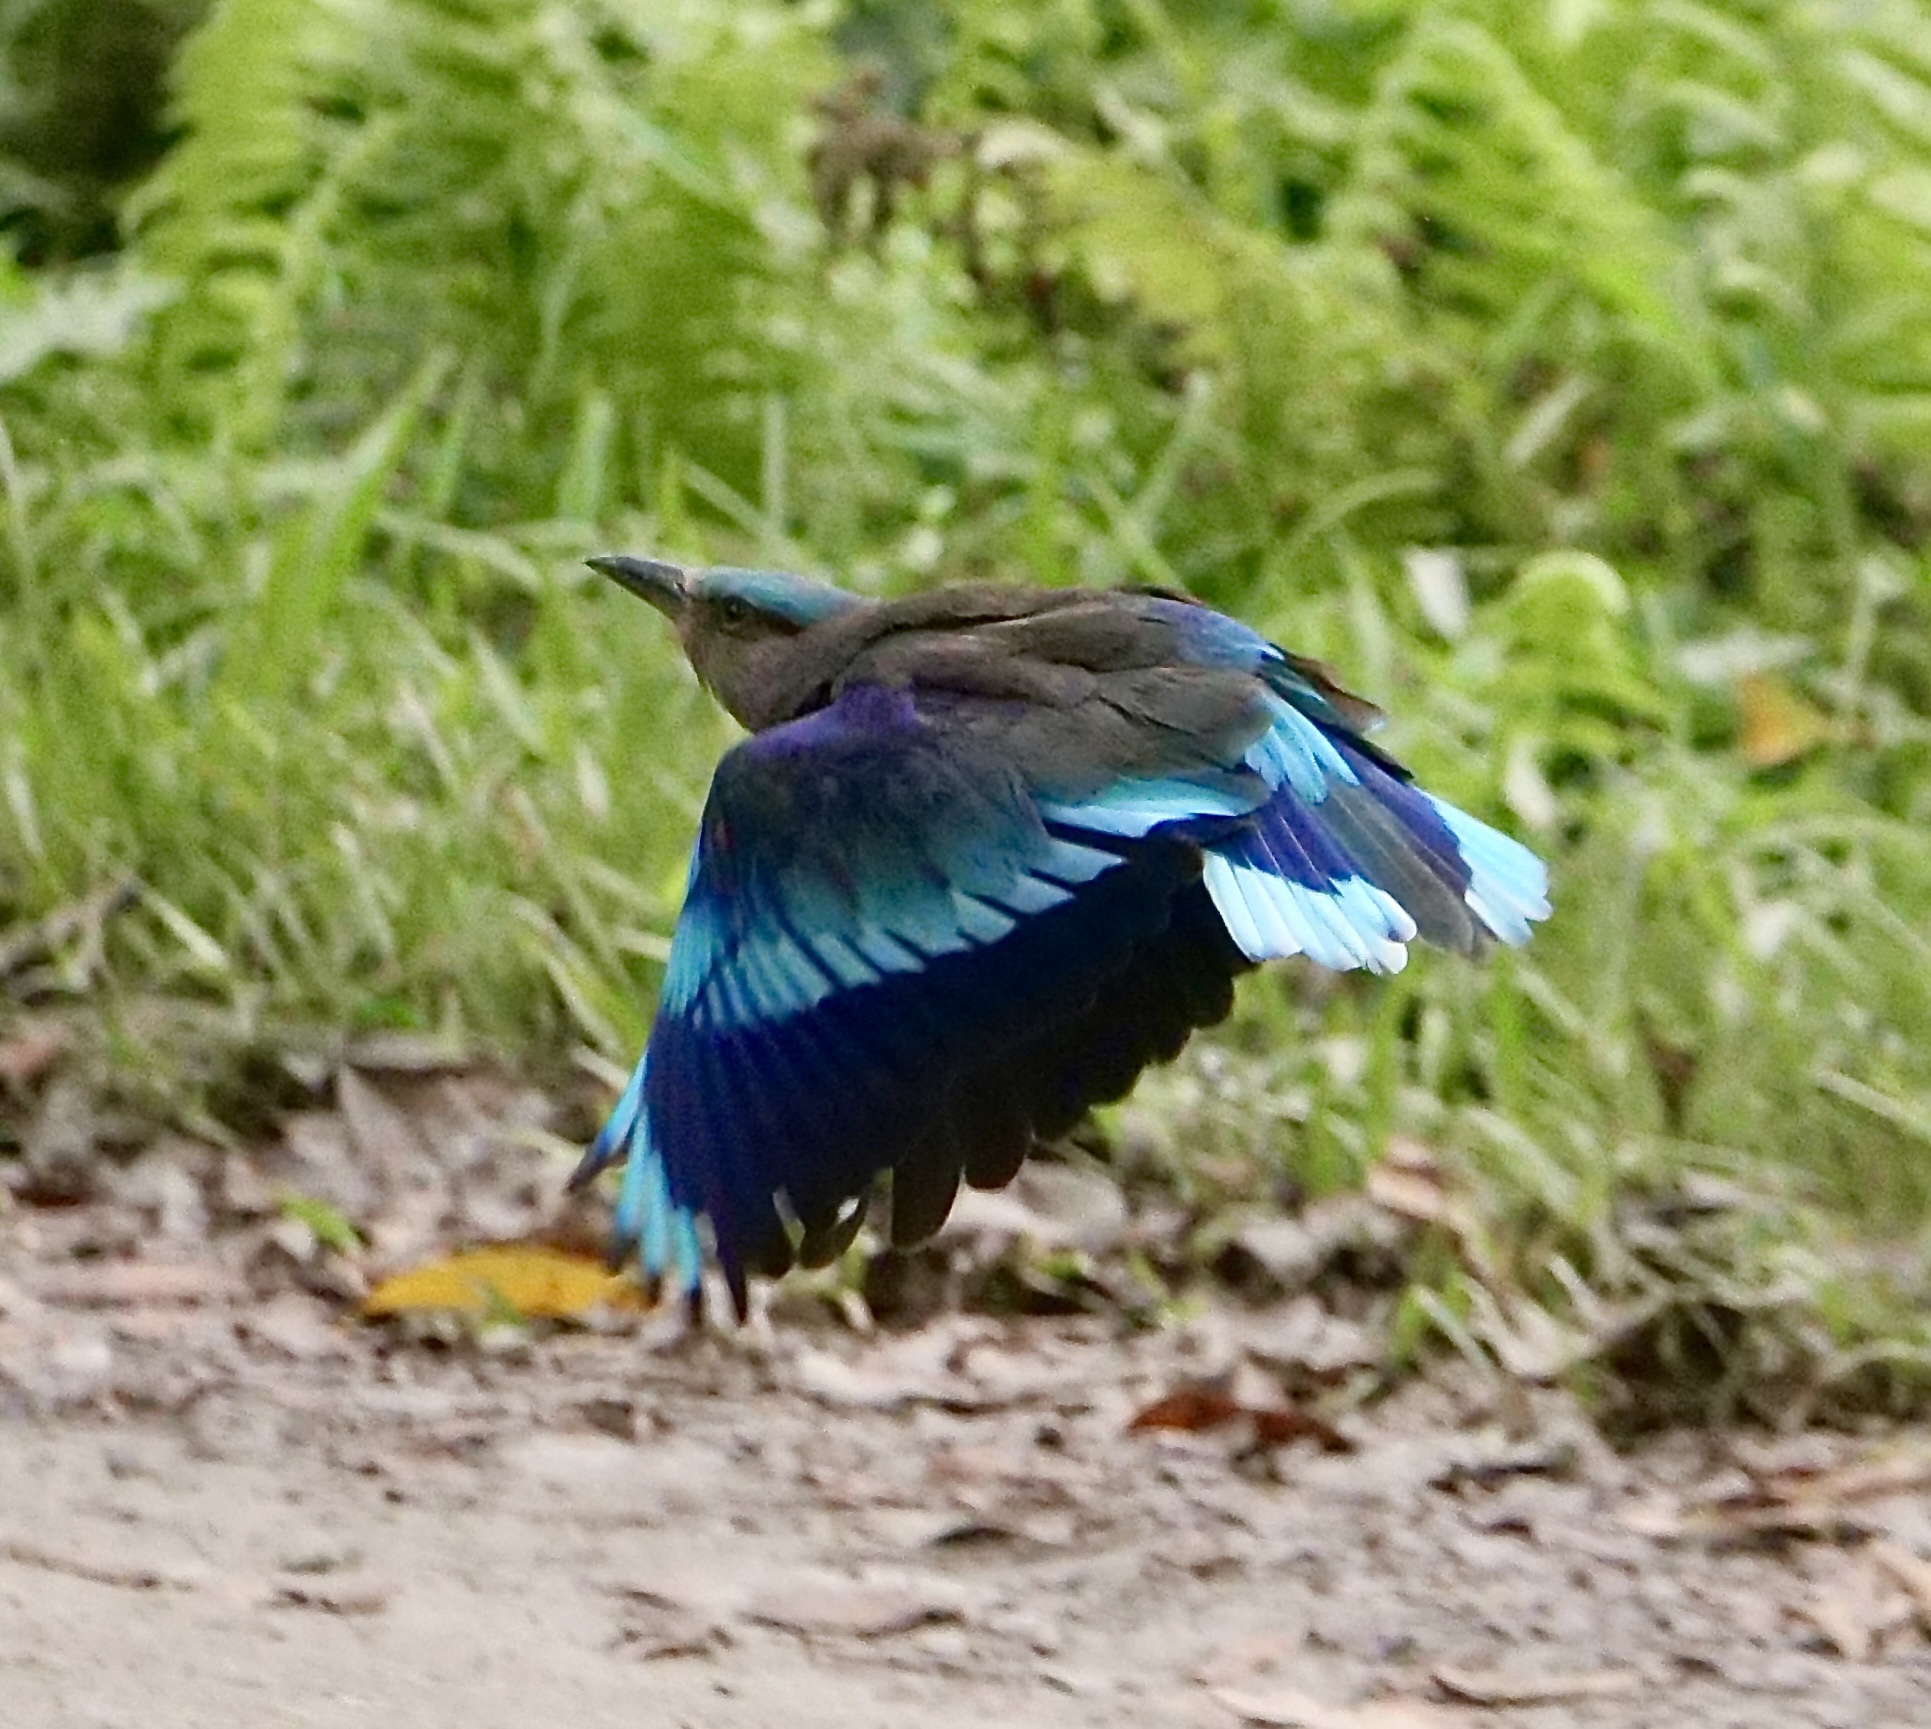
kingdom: Animalia
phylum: Chordata
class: Aves
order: Coraciiformes
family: Coraciidae
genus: Coracias
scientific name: Coracias affinis
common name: Indochinese roller
